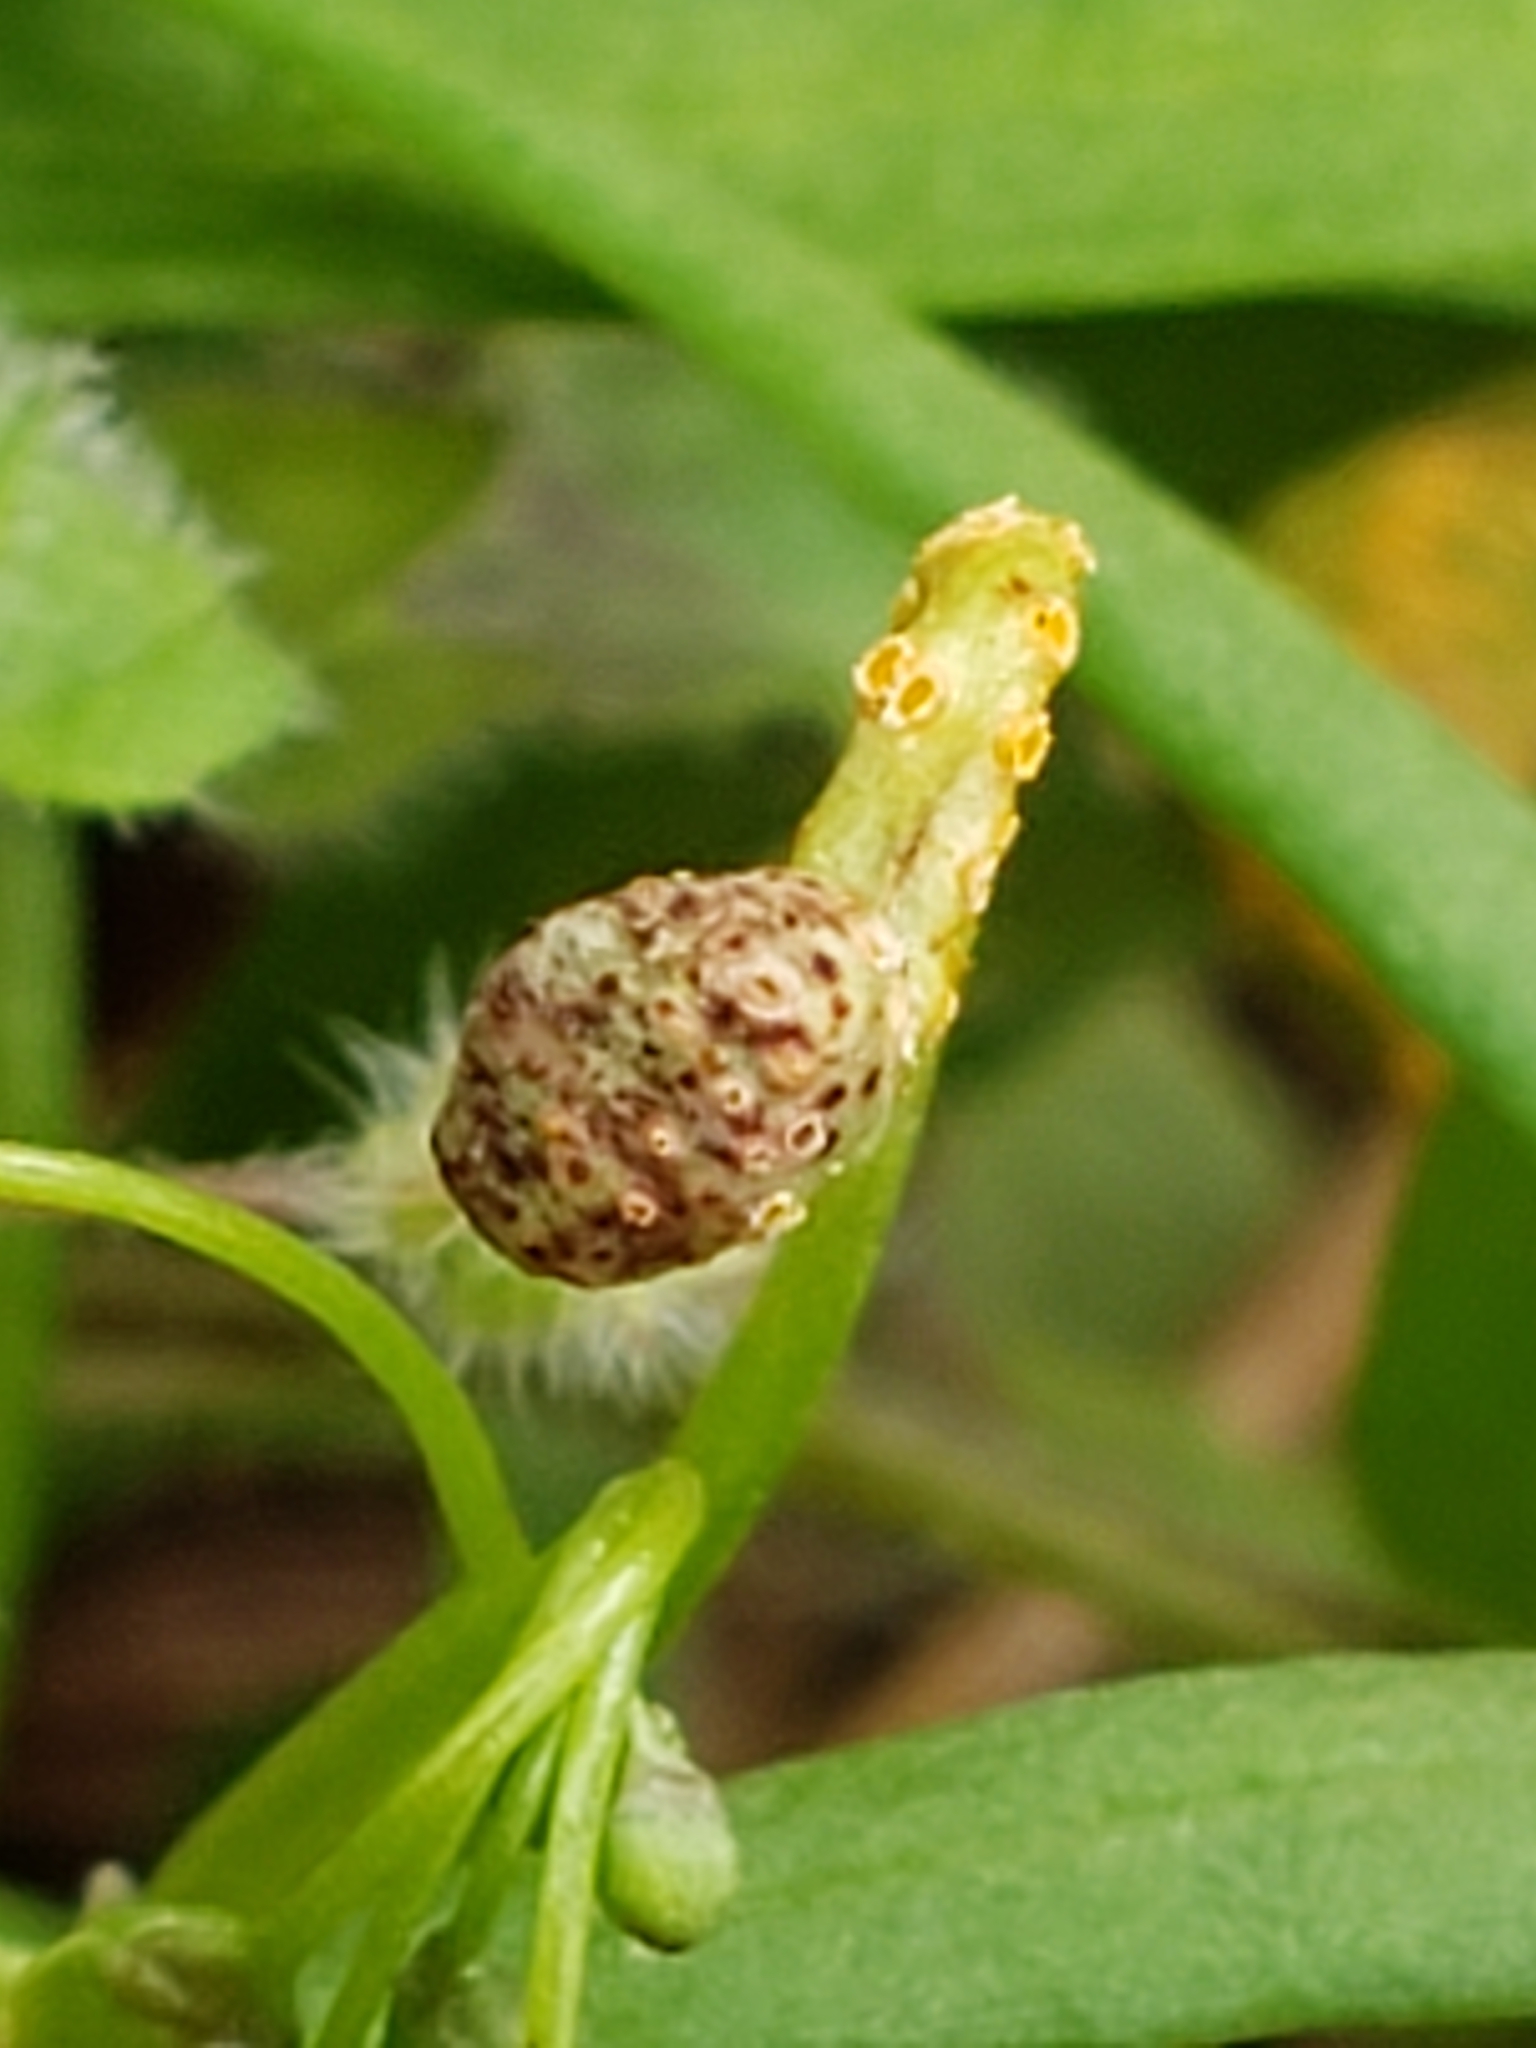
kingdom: Fungi
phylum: Basidiomycota
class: Pucciniomycetes
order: Pucciniales
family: Pucciniaceae
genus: Puccinia
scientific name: Puccinia mariae-wilsoniae
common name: Spring beauty rust
